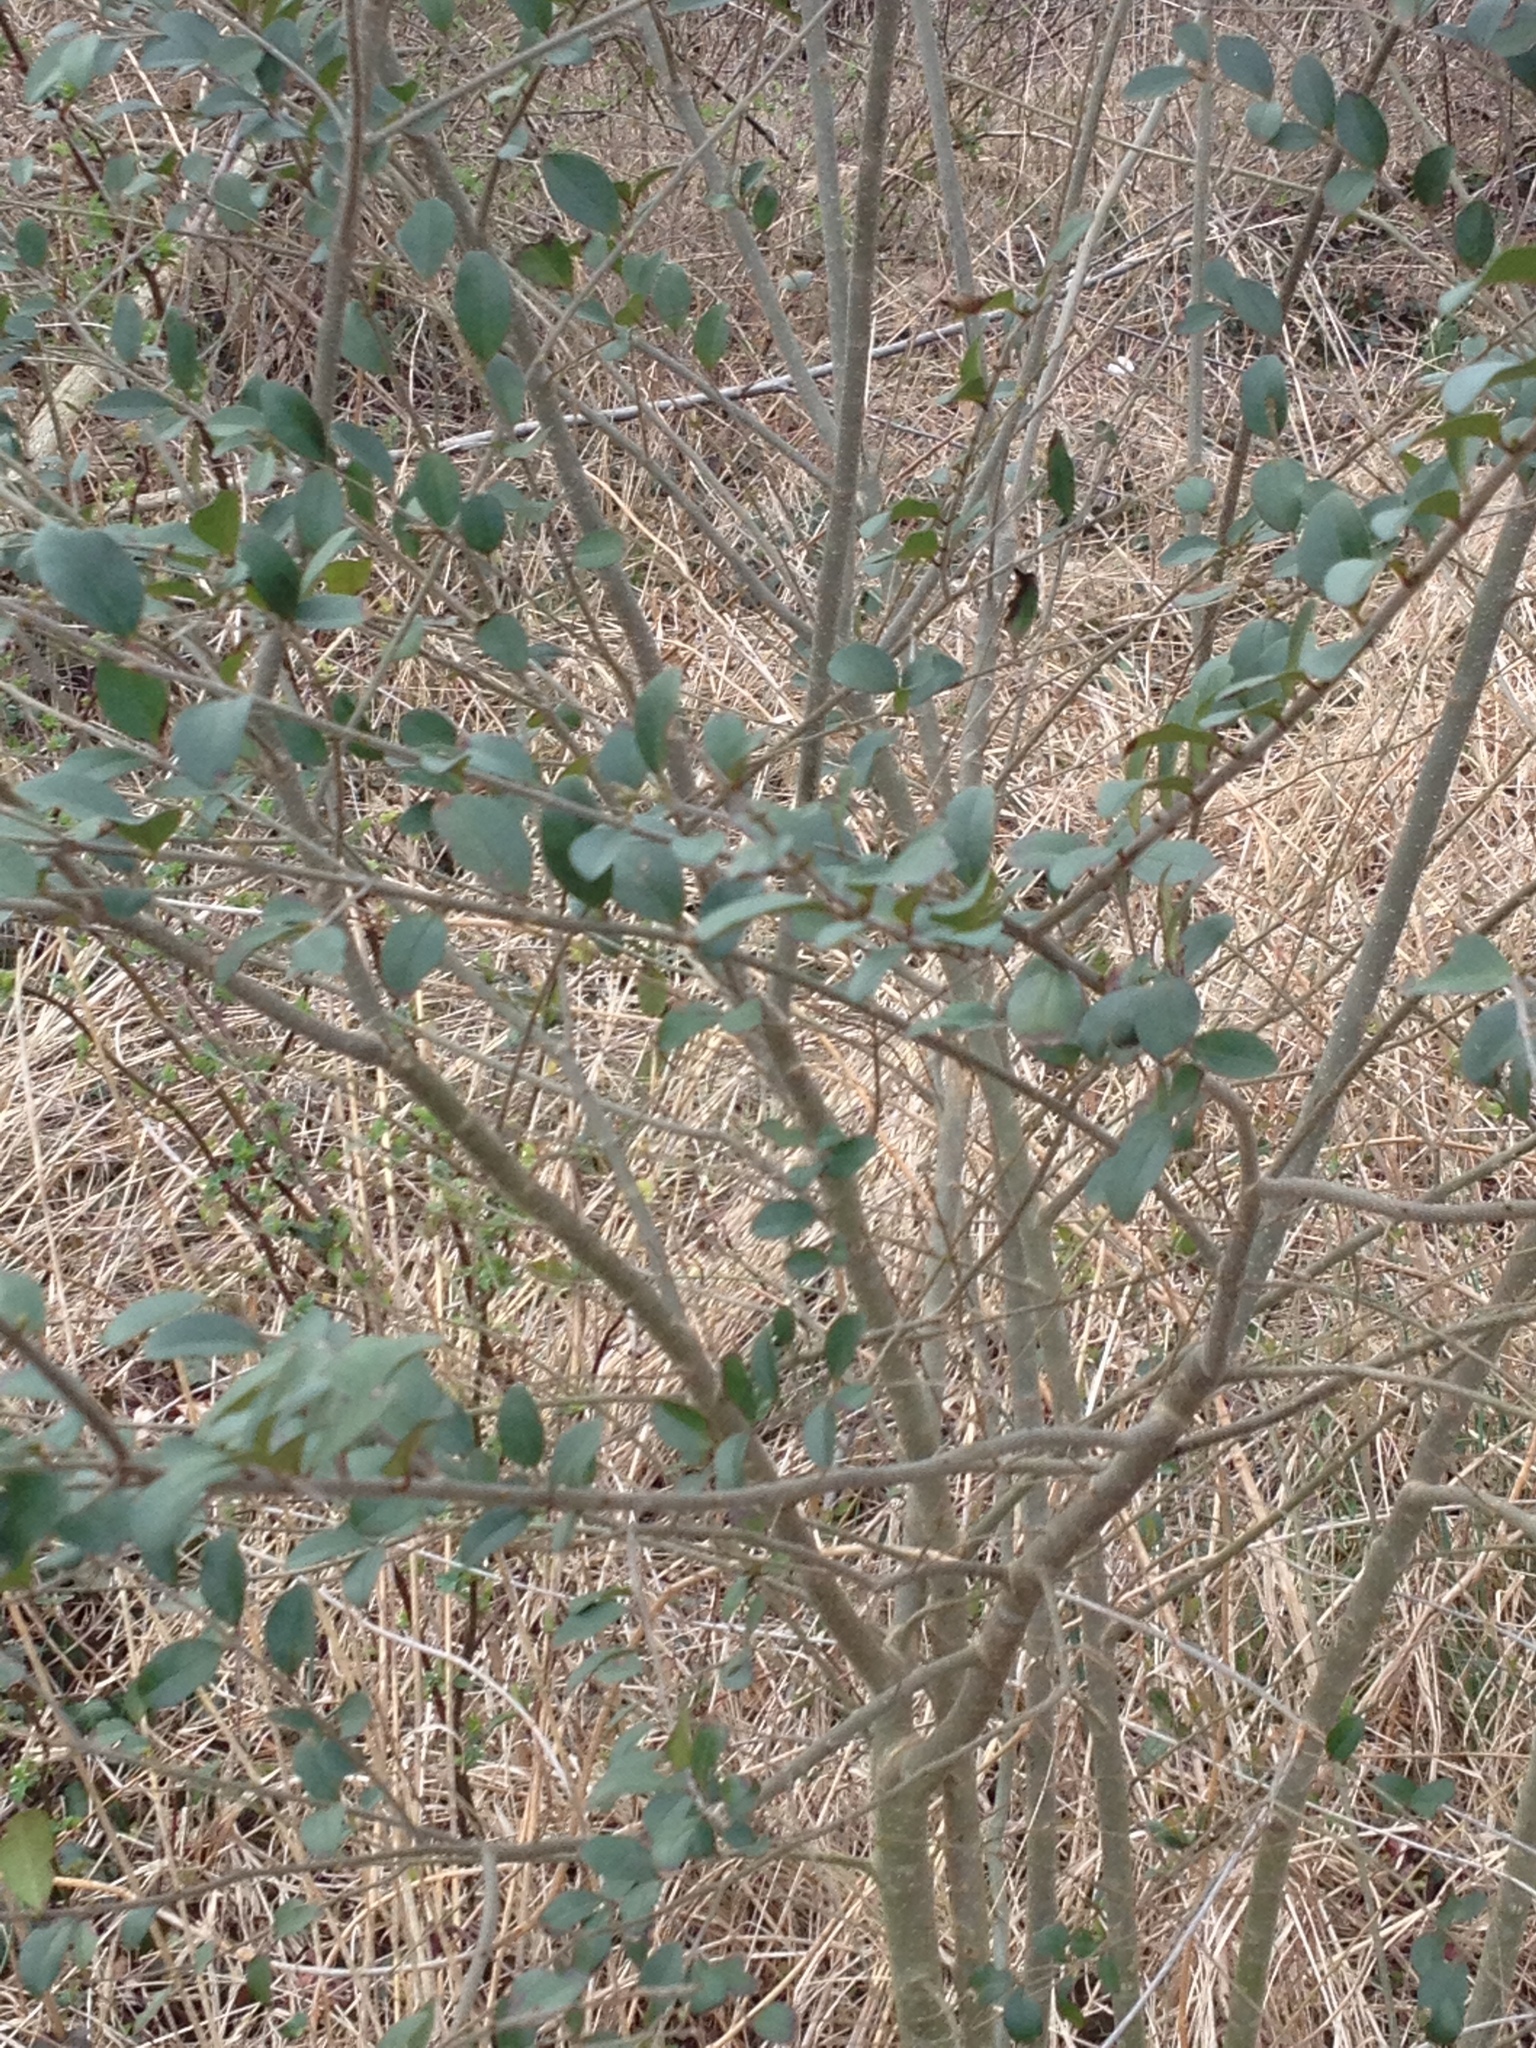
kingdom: Plantae
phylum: Tracheophyta
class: Magnoliopsida
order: Lamiales
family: Oleaceae
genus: Ligustrum
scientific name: Ligustrum sinense
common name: Chinese privet
